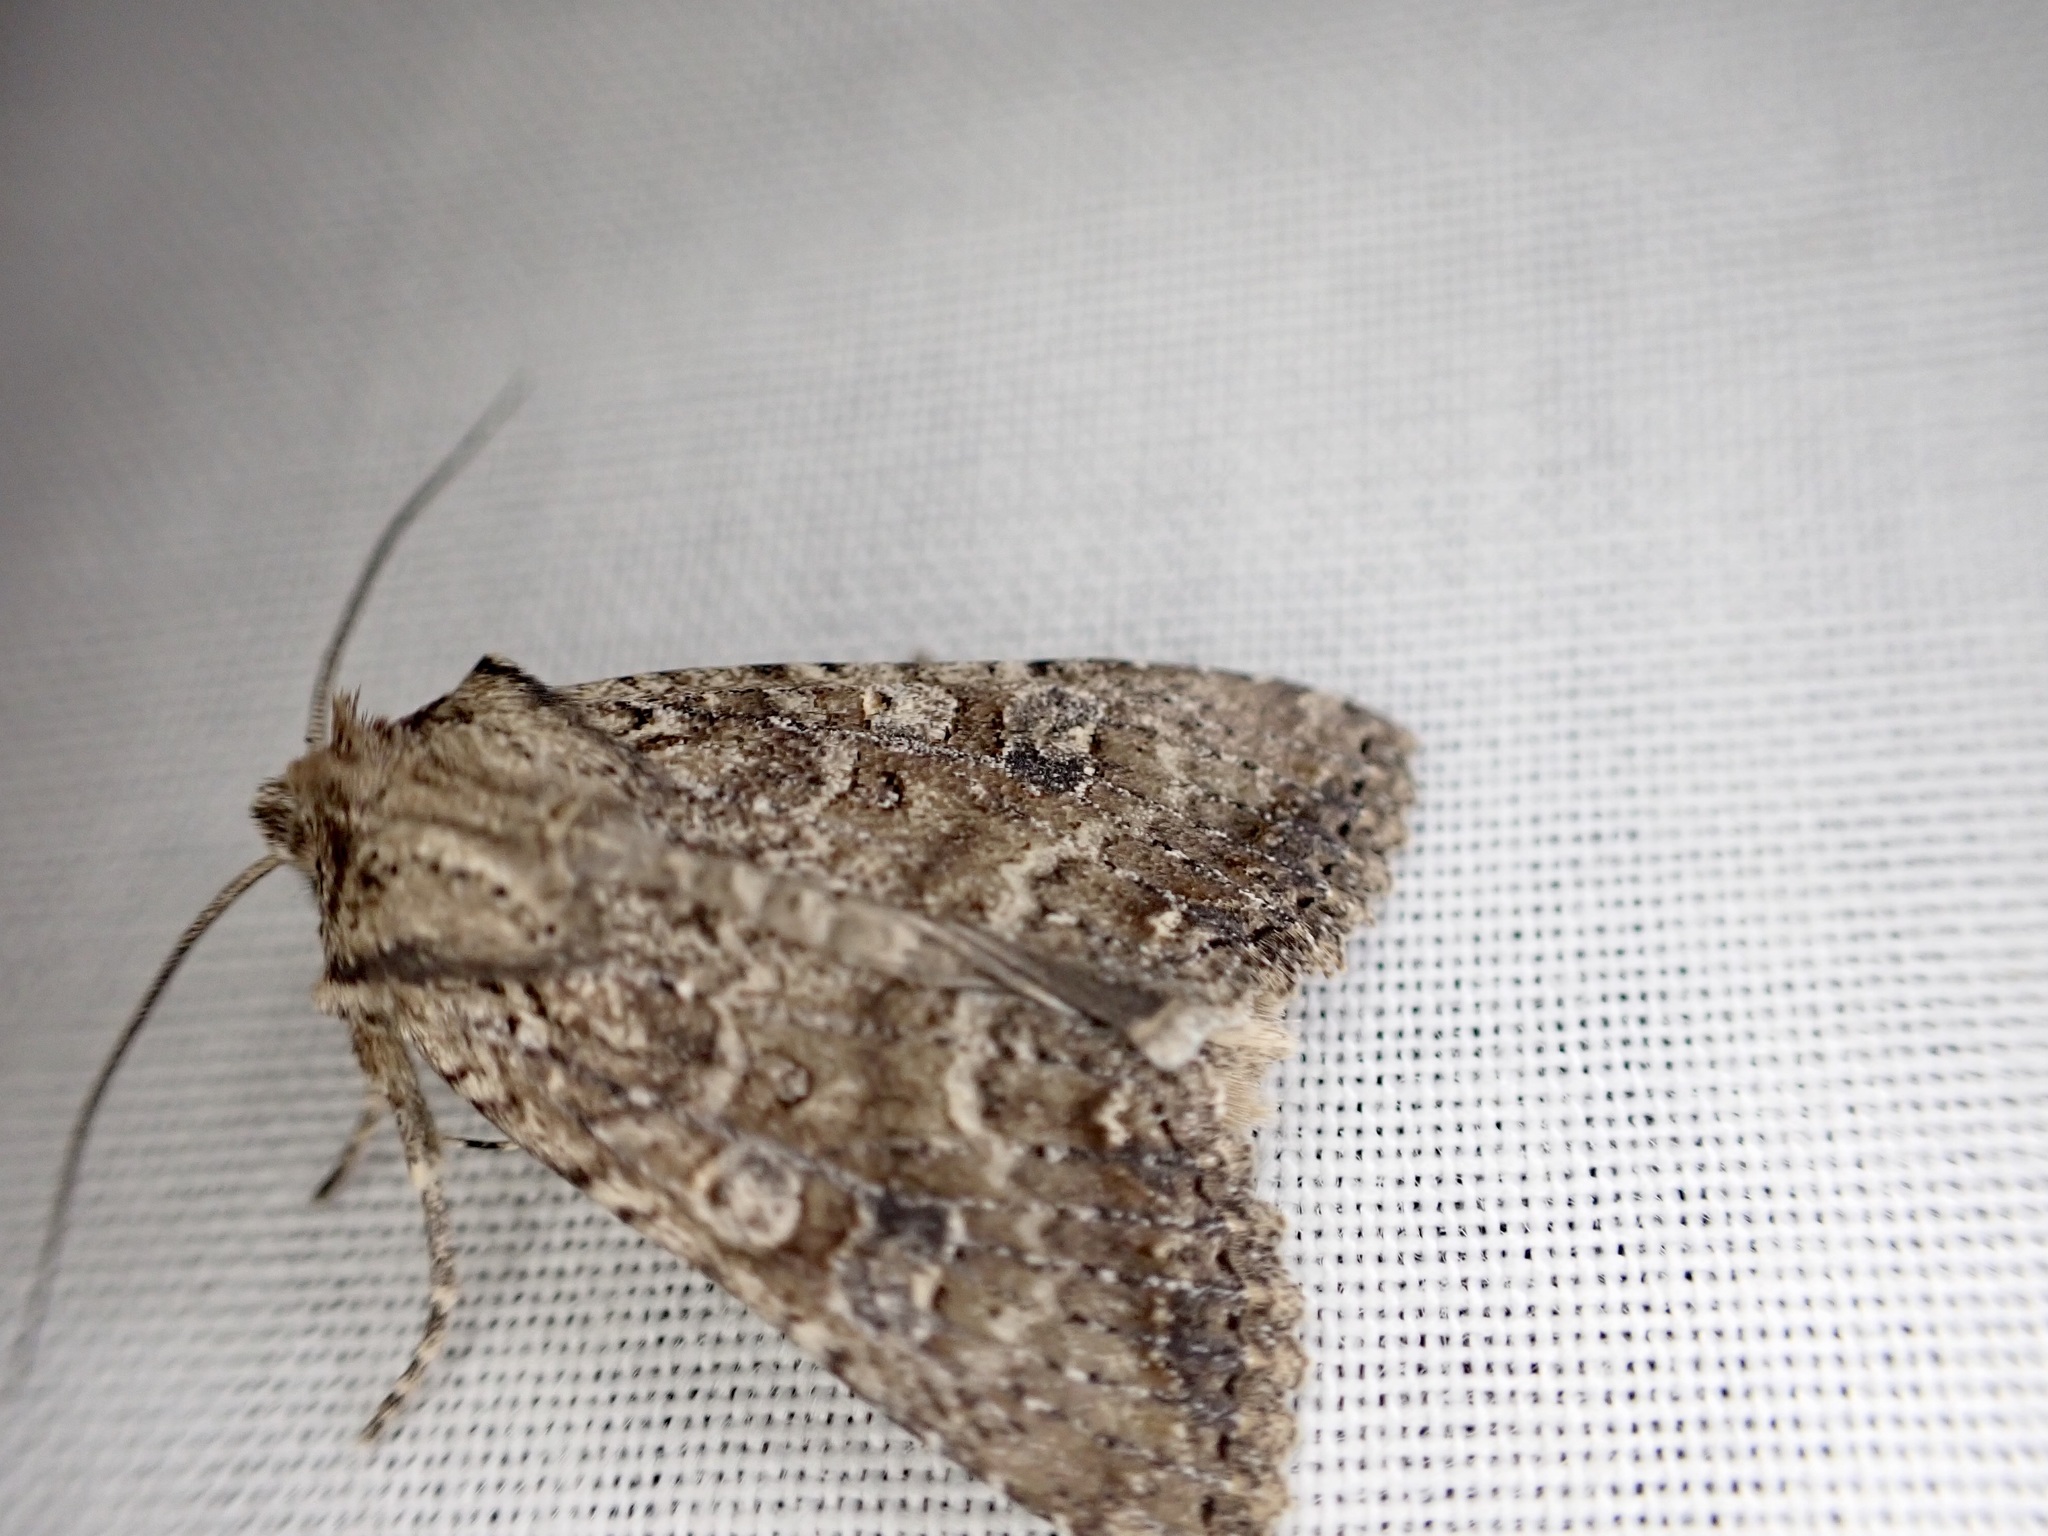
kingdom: Animalia
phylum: Arthropoda
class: Insecta
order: Lepidoptera
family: Noctuidae
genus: Ichneutica
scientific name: Ichneutica morosa
